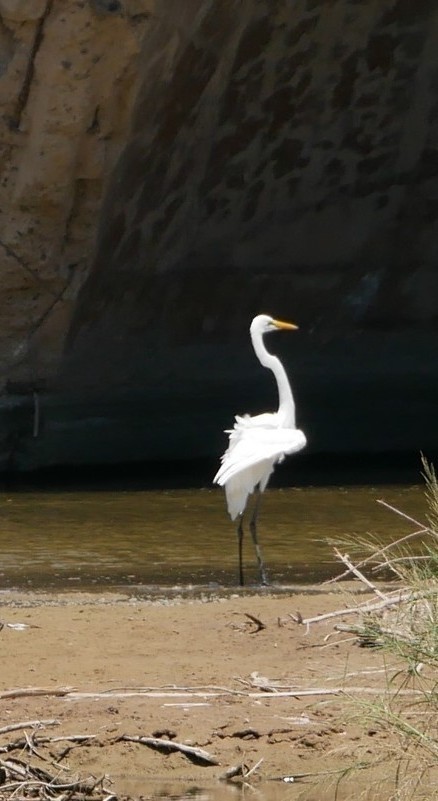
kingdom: Animalia
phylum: Chordata
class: Aves
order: Pelecaniformes
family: Ardeidae
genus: Ardea
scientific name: Ardea alba
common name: Great egret
